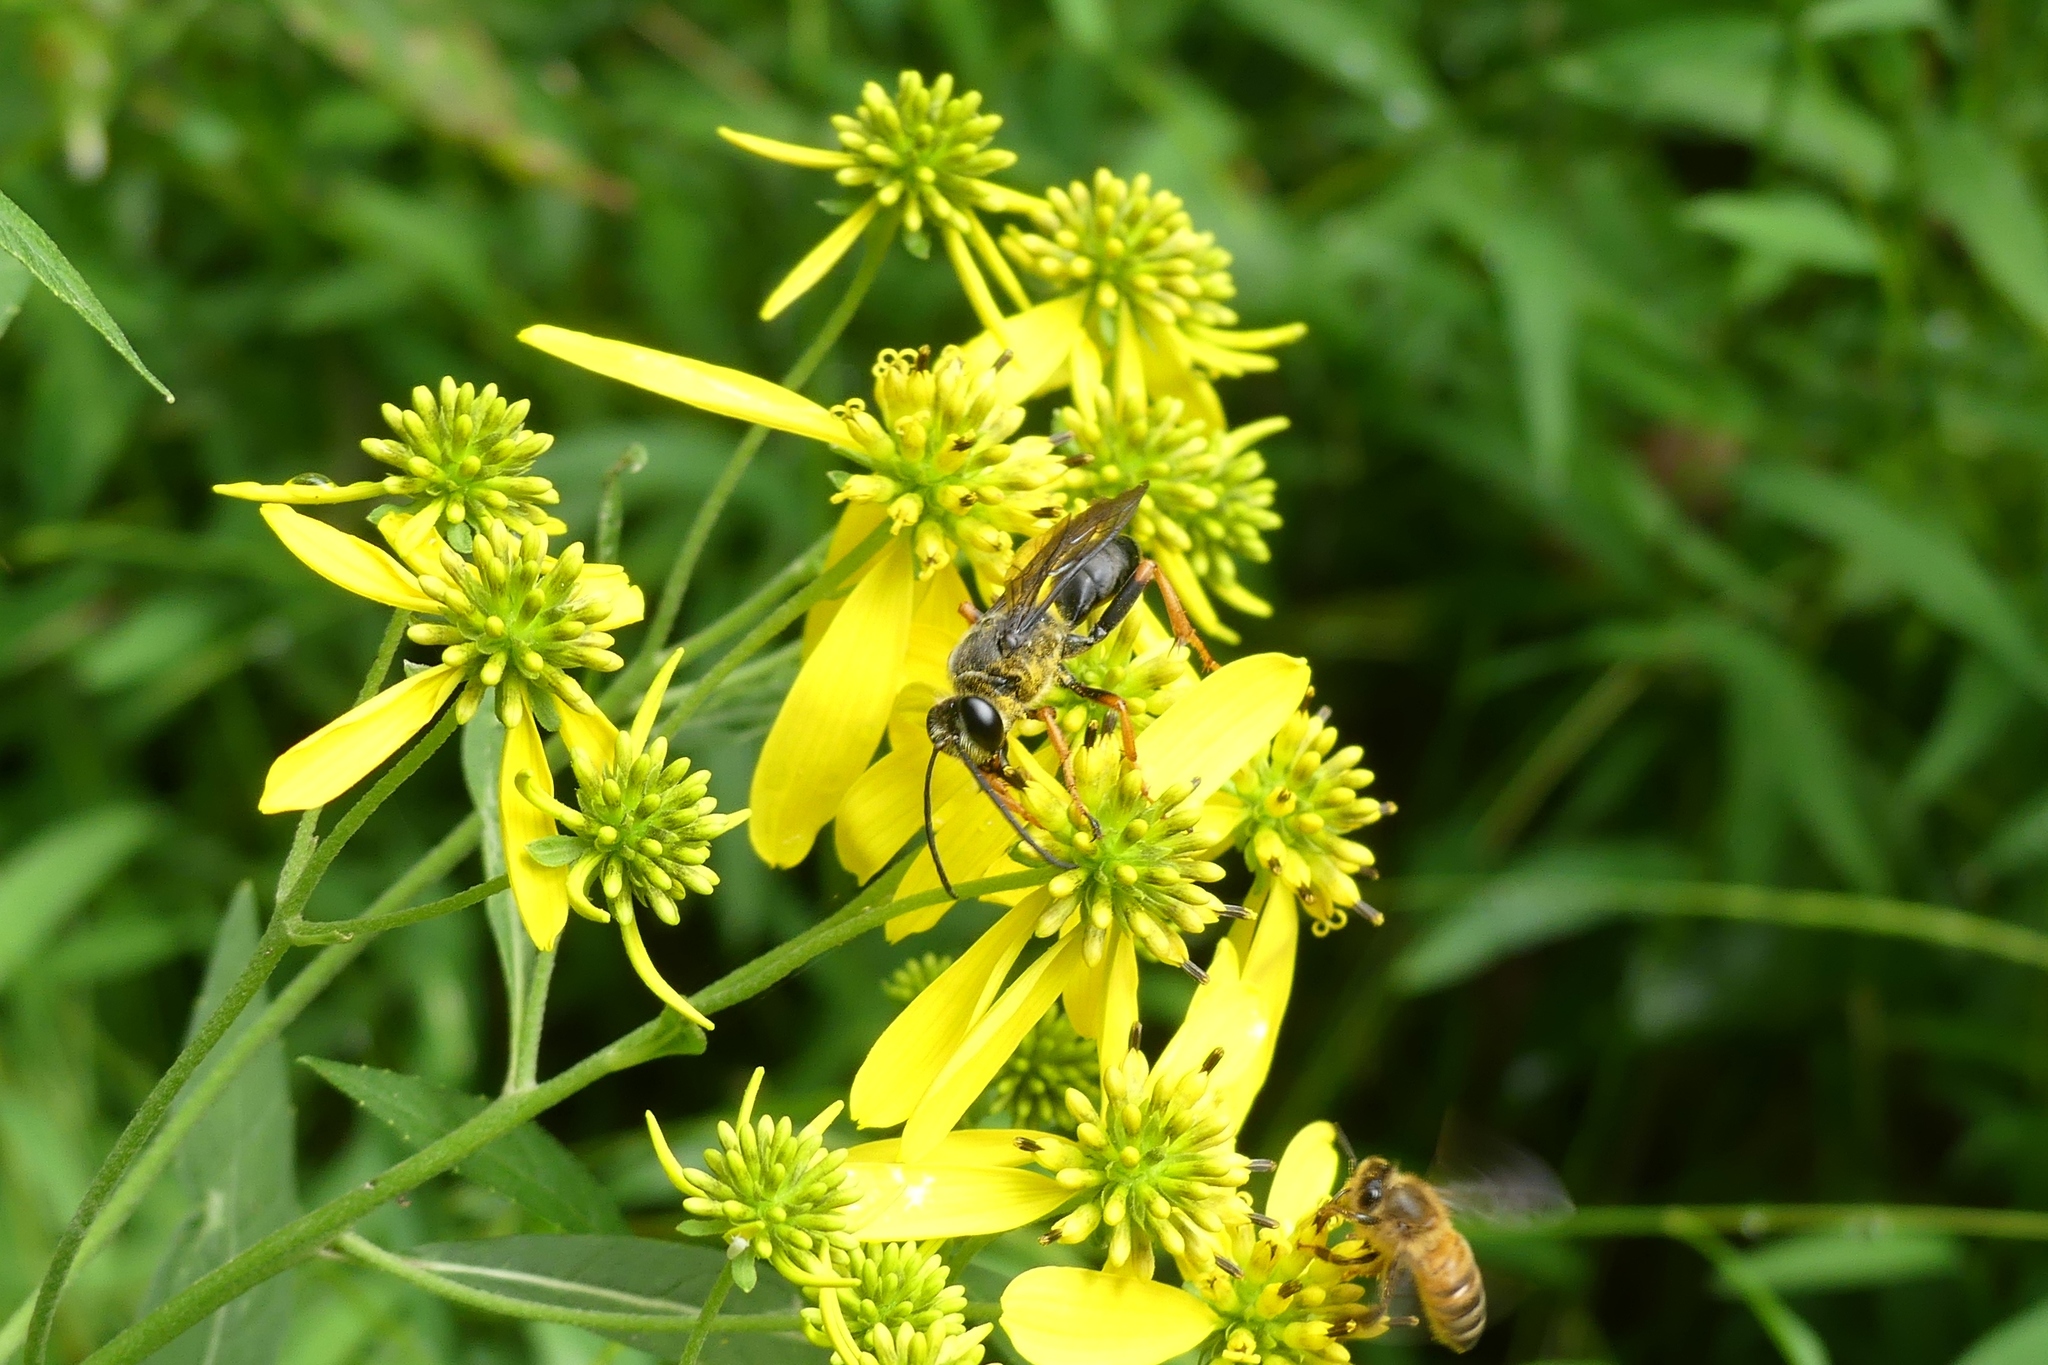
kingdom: Animalia
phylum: Arthropoda
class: Insecta
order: Hymenoptera
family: Sphecidae
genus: Sphex
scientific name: Sphex nudus
